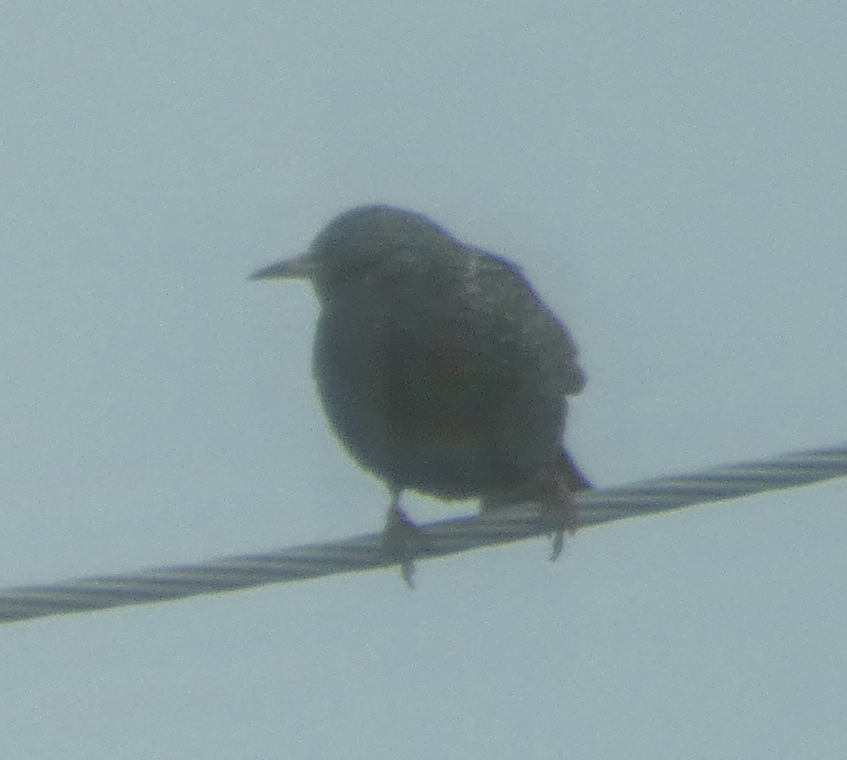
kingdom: Animalia
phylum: Chordata
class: Aves
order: Passeriformes
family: Sturnidae
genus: Sturnus
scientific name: Sturnus vulgaris
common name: Common starling
